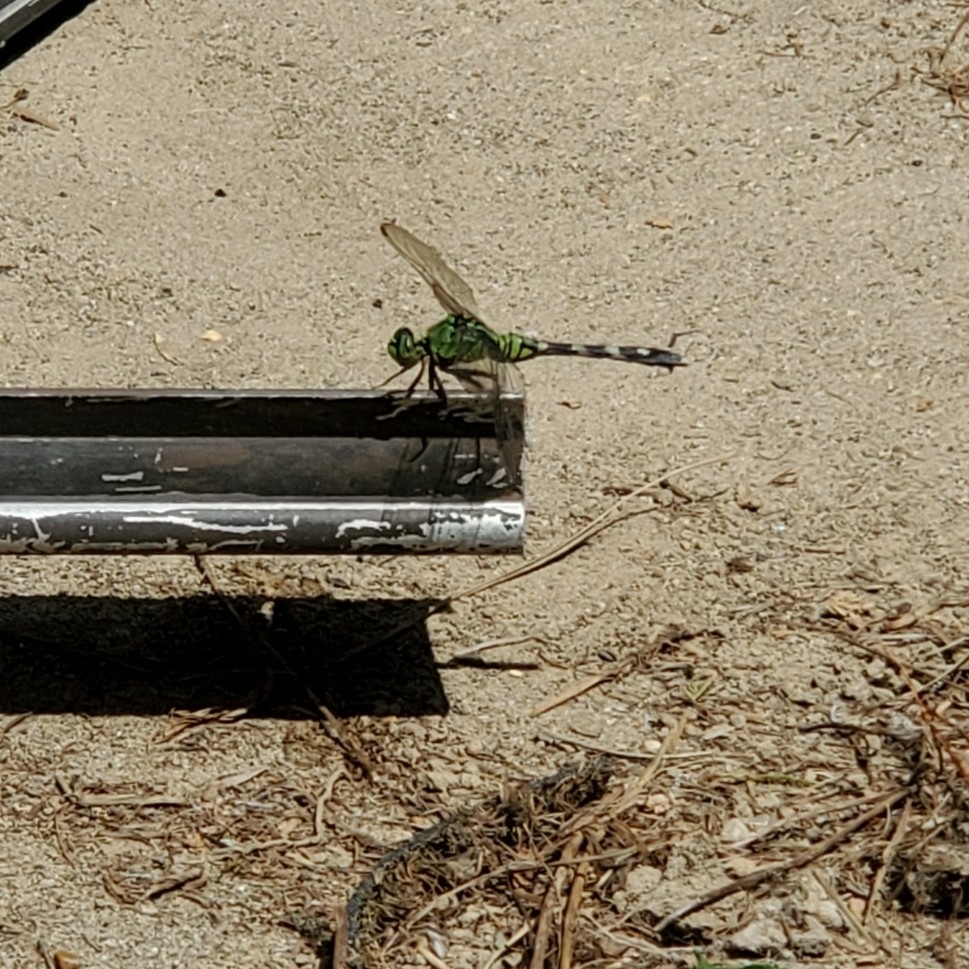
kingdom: Animalia
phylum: Arthropoda
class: Insecta
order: Odonata
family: Libellulidae
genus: Erythemis
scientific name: Erythemis simplicicollis
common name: Eastern pondhawk
